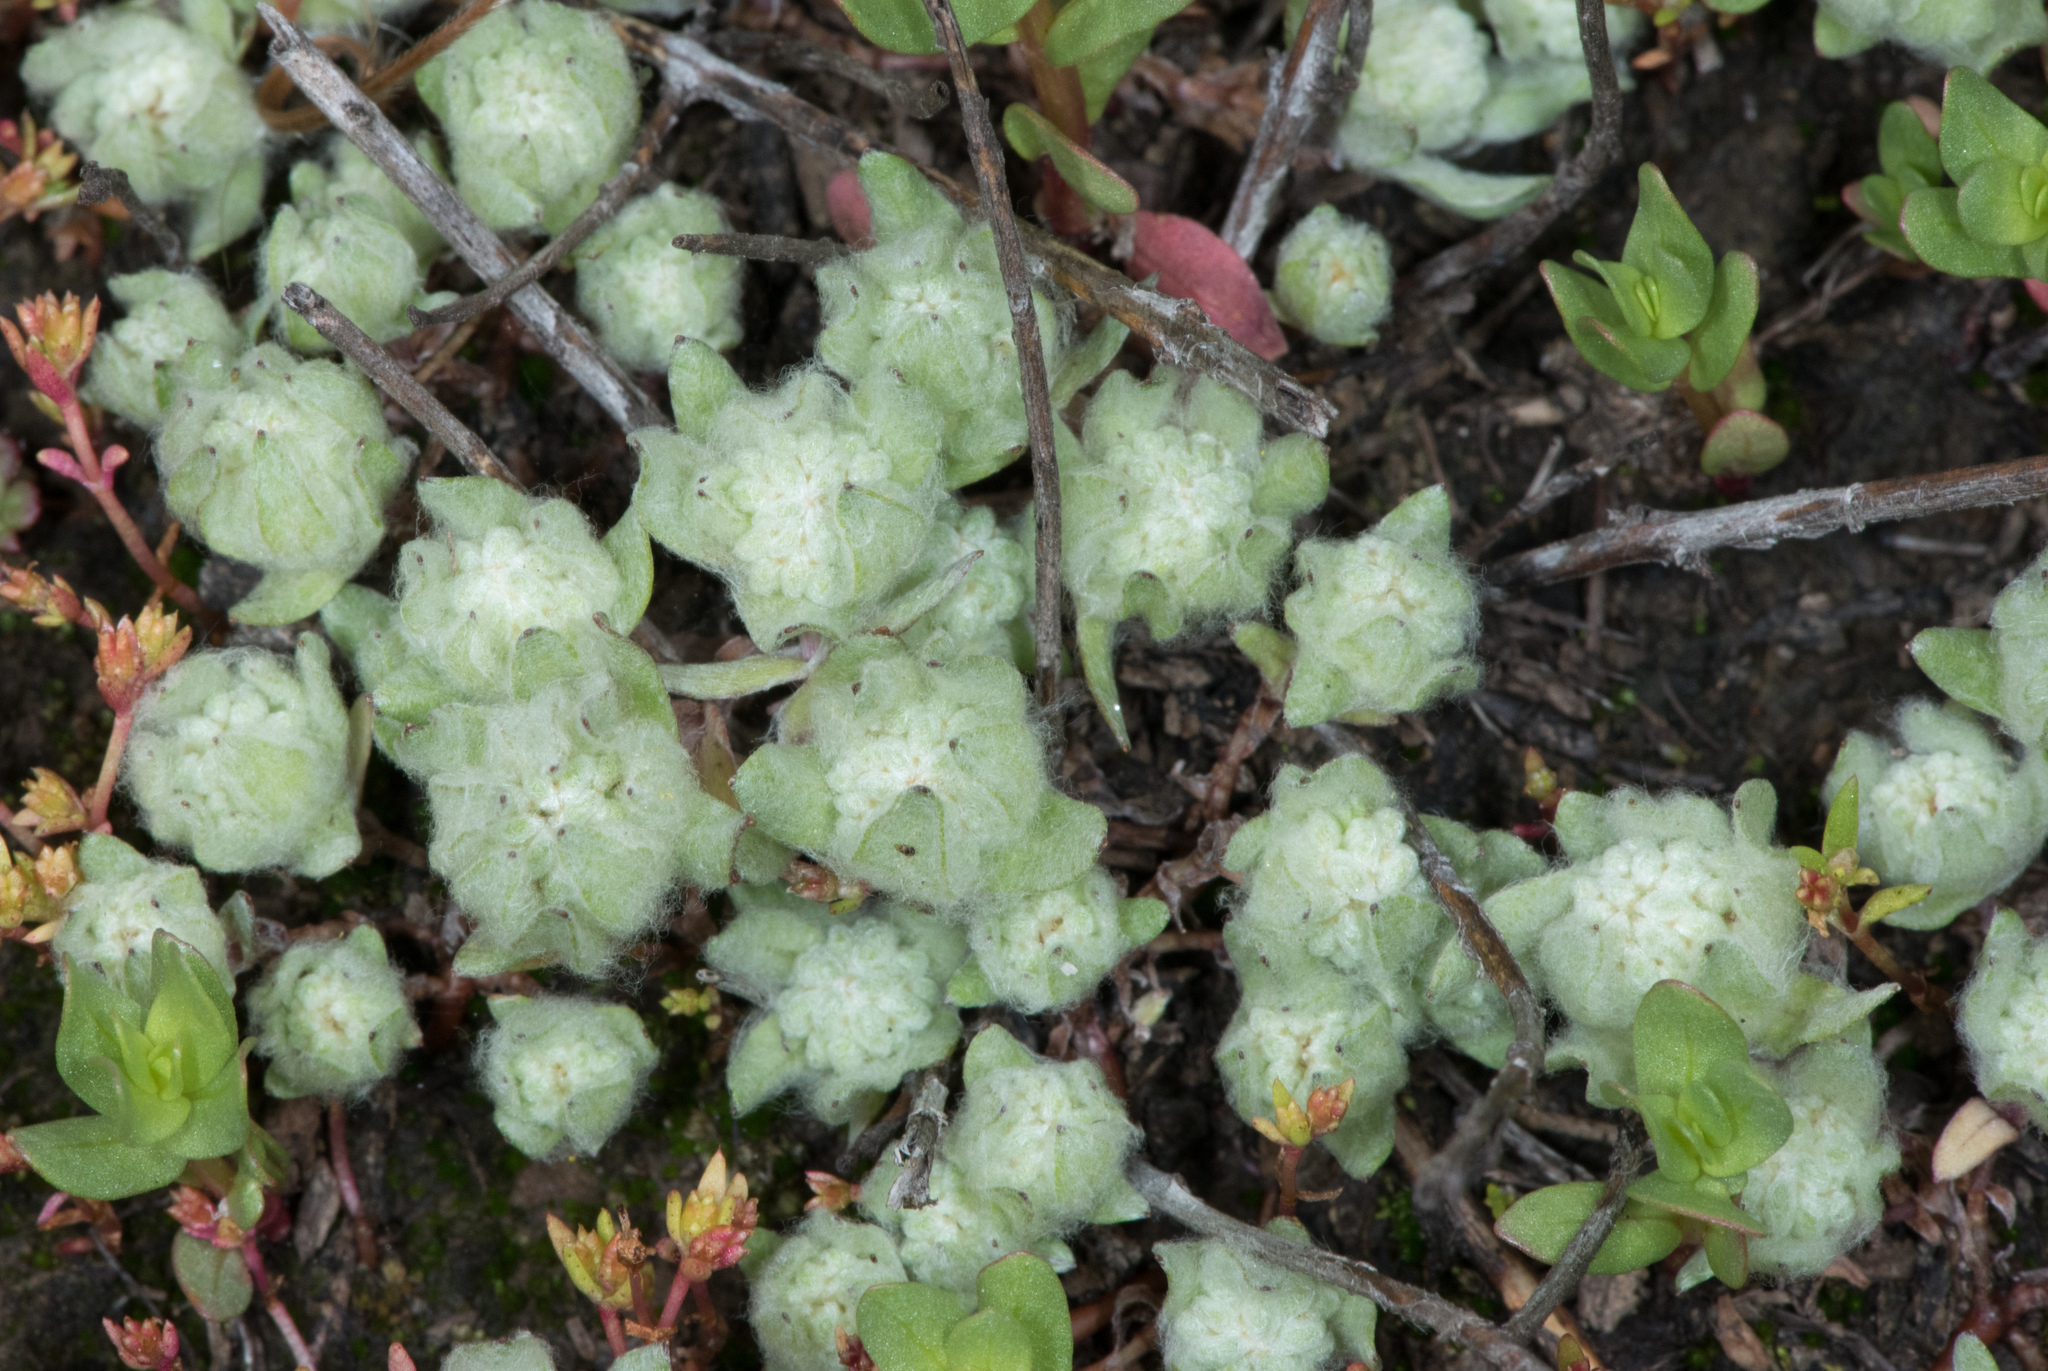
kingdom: Plantae
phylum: Tracheophyta
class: Magnoliopsida
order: Asterales
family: Asteraceae
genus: Psilocarphus
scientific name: Psilocarphus brevissimus
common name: Dwarf woollyheads
